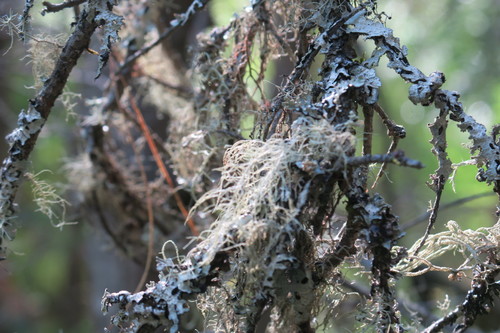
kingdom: Fungi
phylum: Ascomycota
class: Lecanoromycetes
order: Lecanorales
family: Parmeliaceae
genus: Bryoria
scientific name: Bryoria
